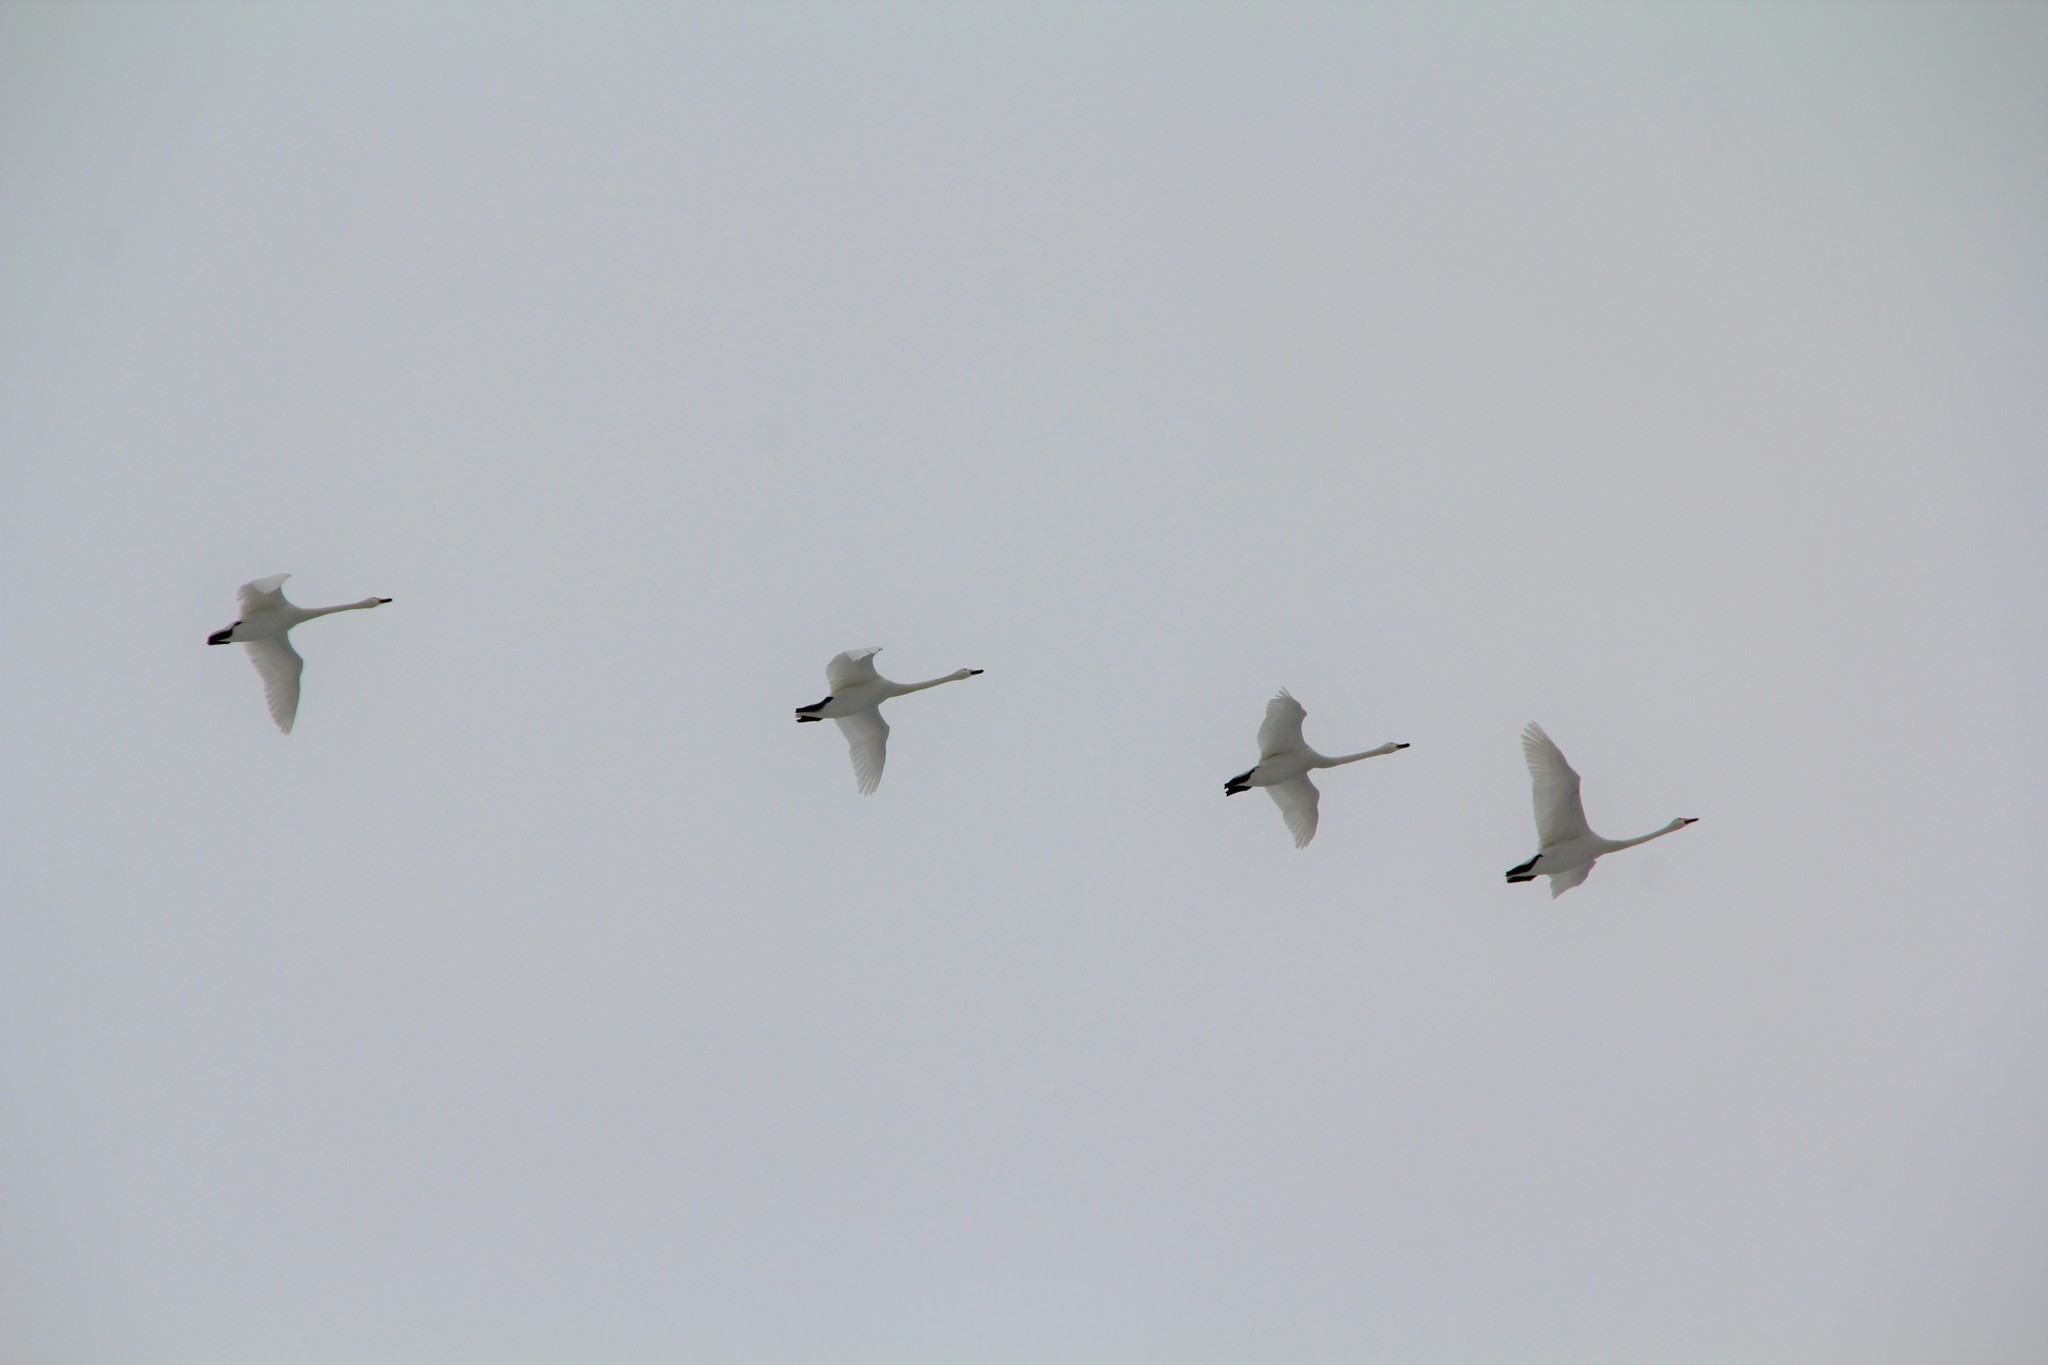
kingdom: Animalia
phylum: Chordata
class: Aves
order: Anseriformes
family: Anatidae
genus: Cygnus
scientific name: Cygnus cygnus
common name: Whooper swan
